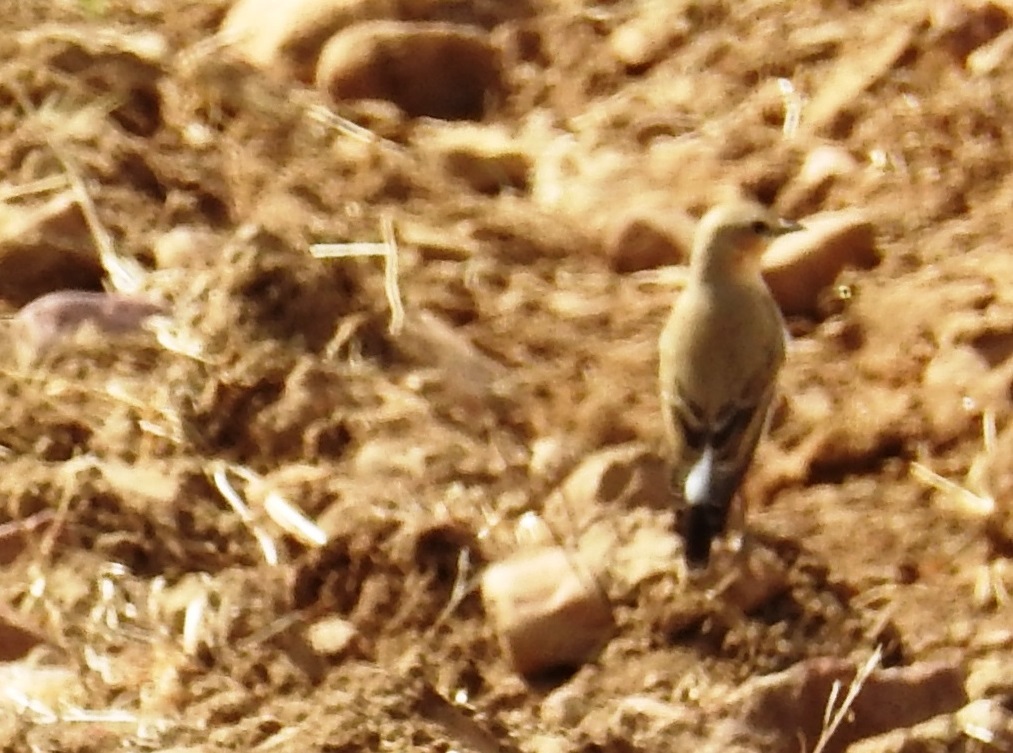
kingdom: Animalia
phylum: Chordata
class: Aves
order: Passeriformes
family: Muscicapidae
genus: Oenanthe
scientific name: Oenanthe oenanthe
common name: Northern wheatear
